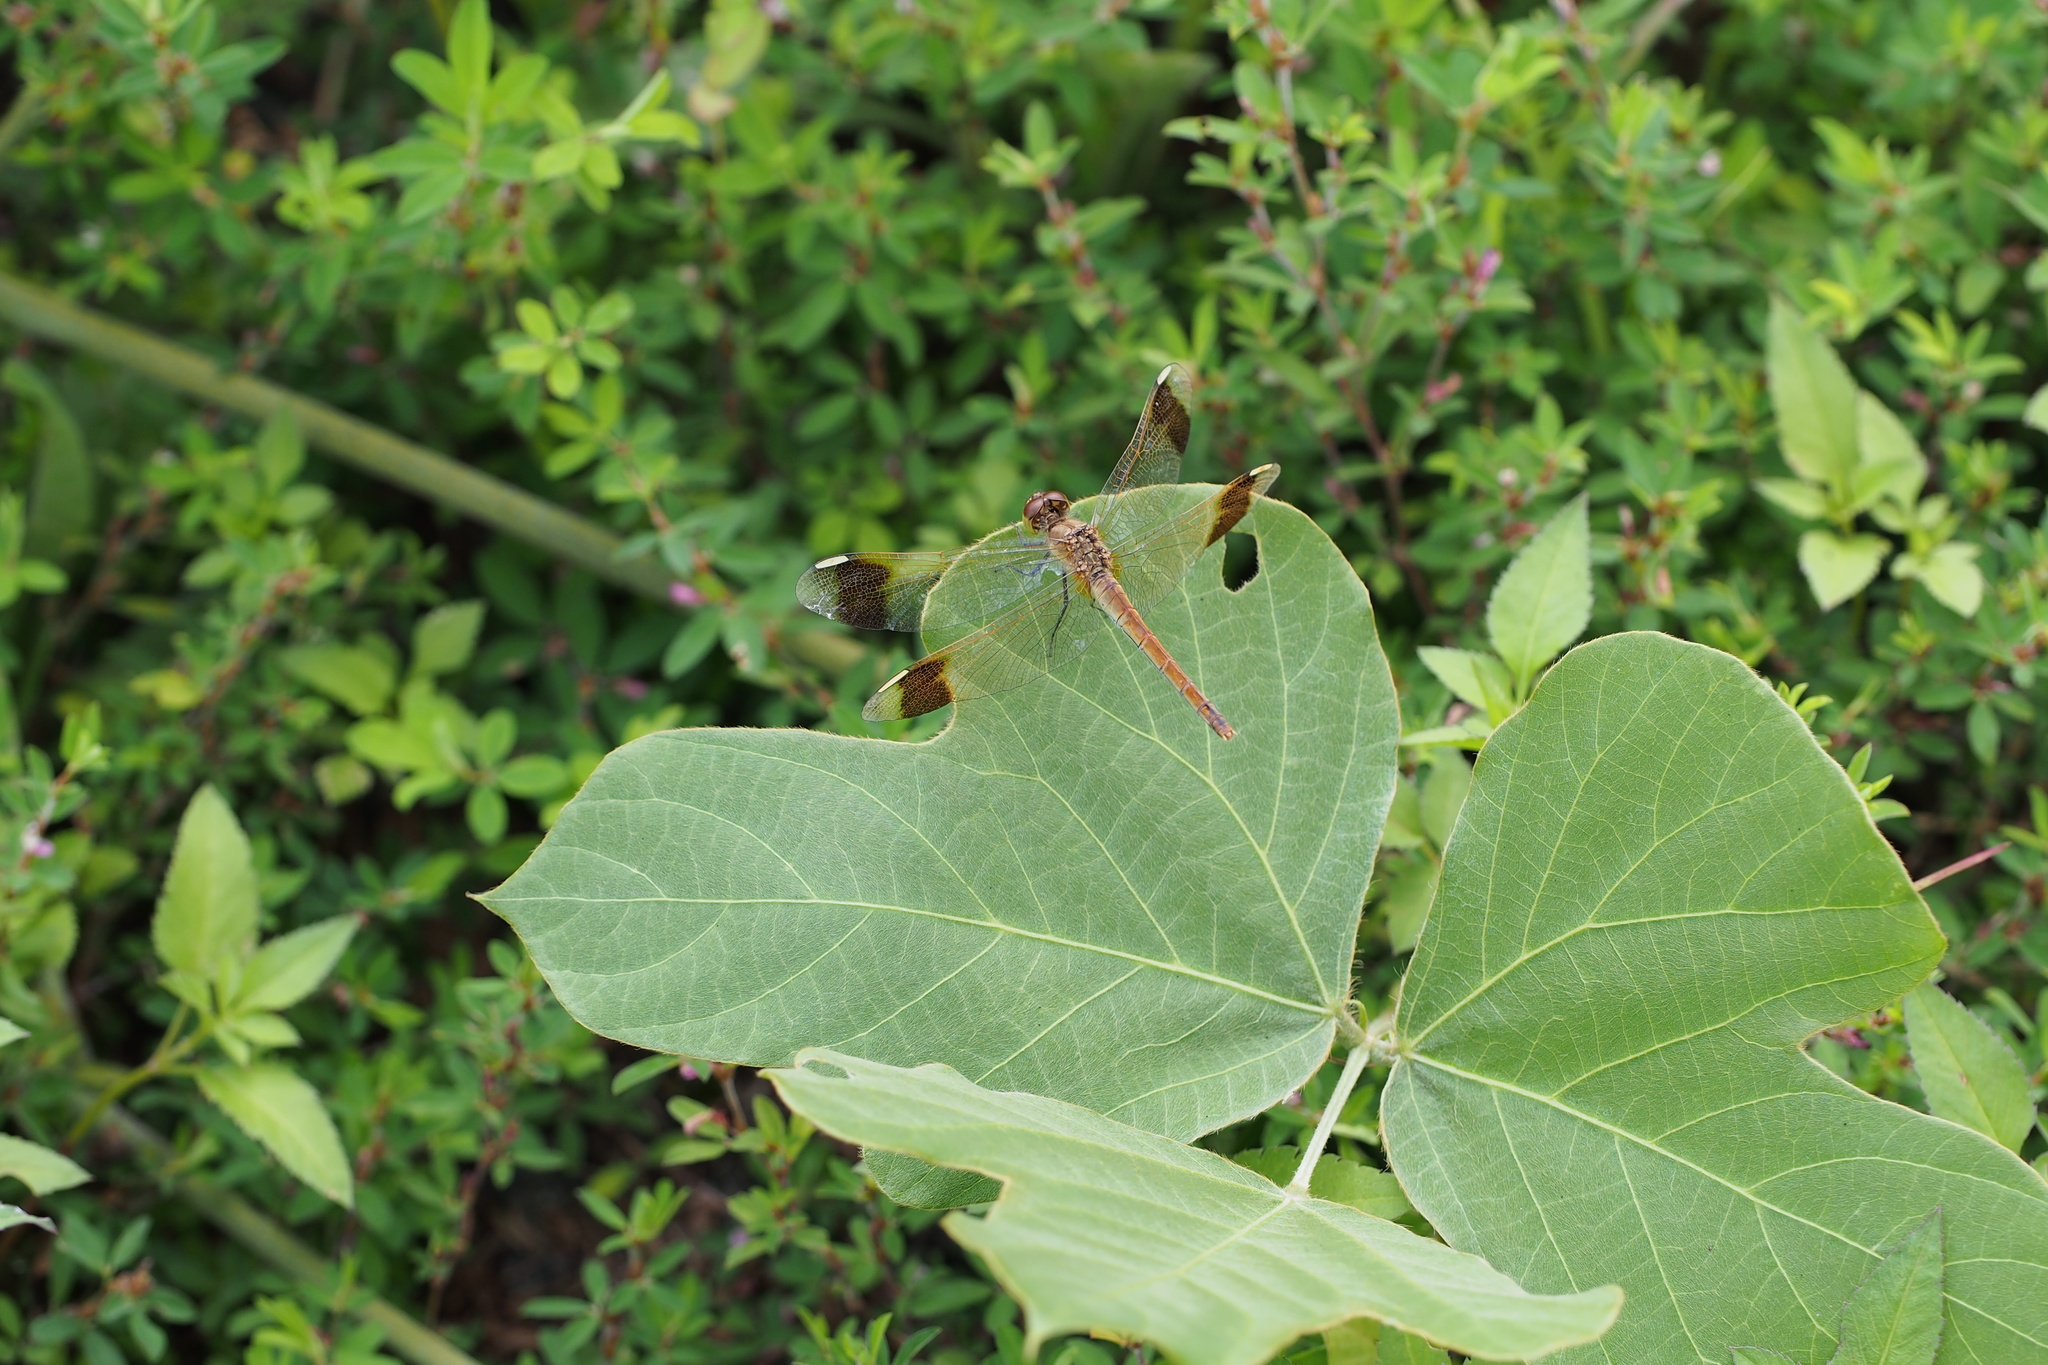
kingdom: Animalia
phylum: Arthropoda
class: Insecta
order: Odonata
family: Libellulidae
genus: Sympetrum
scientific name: Sympetrum pedemontanum
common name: Banded darter
